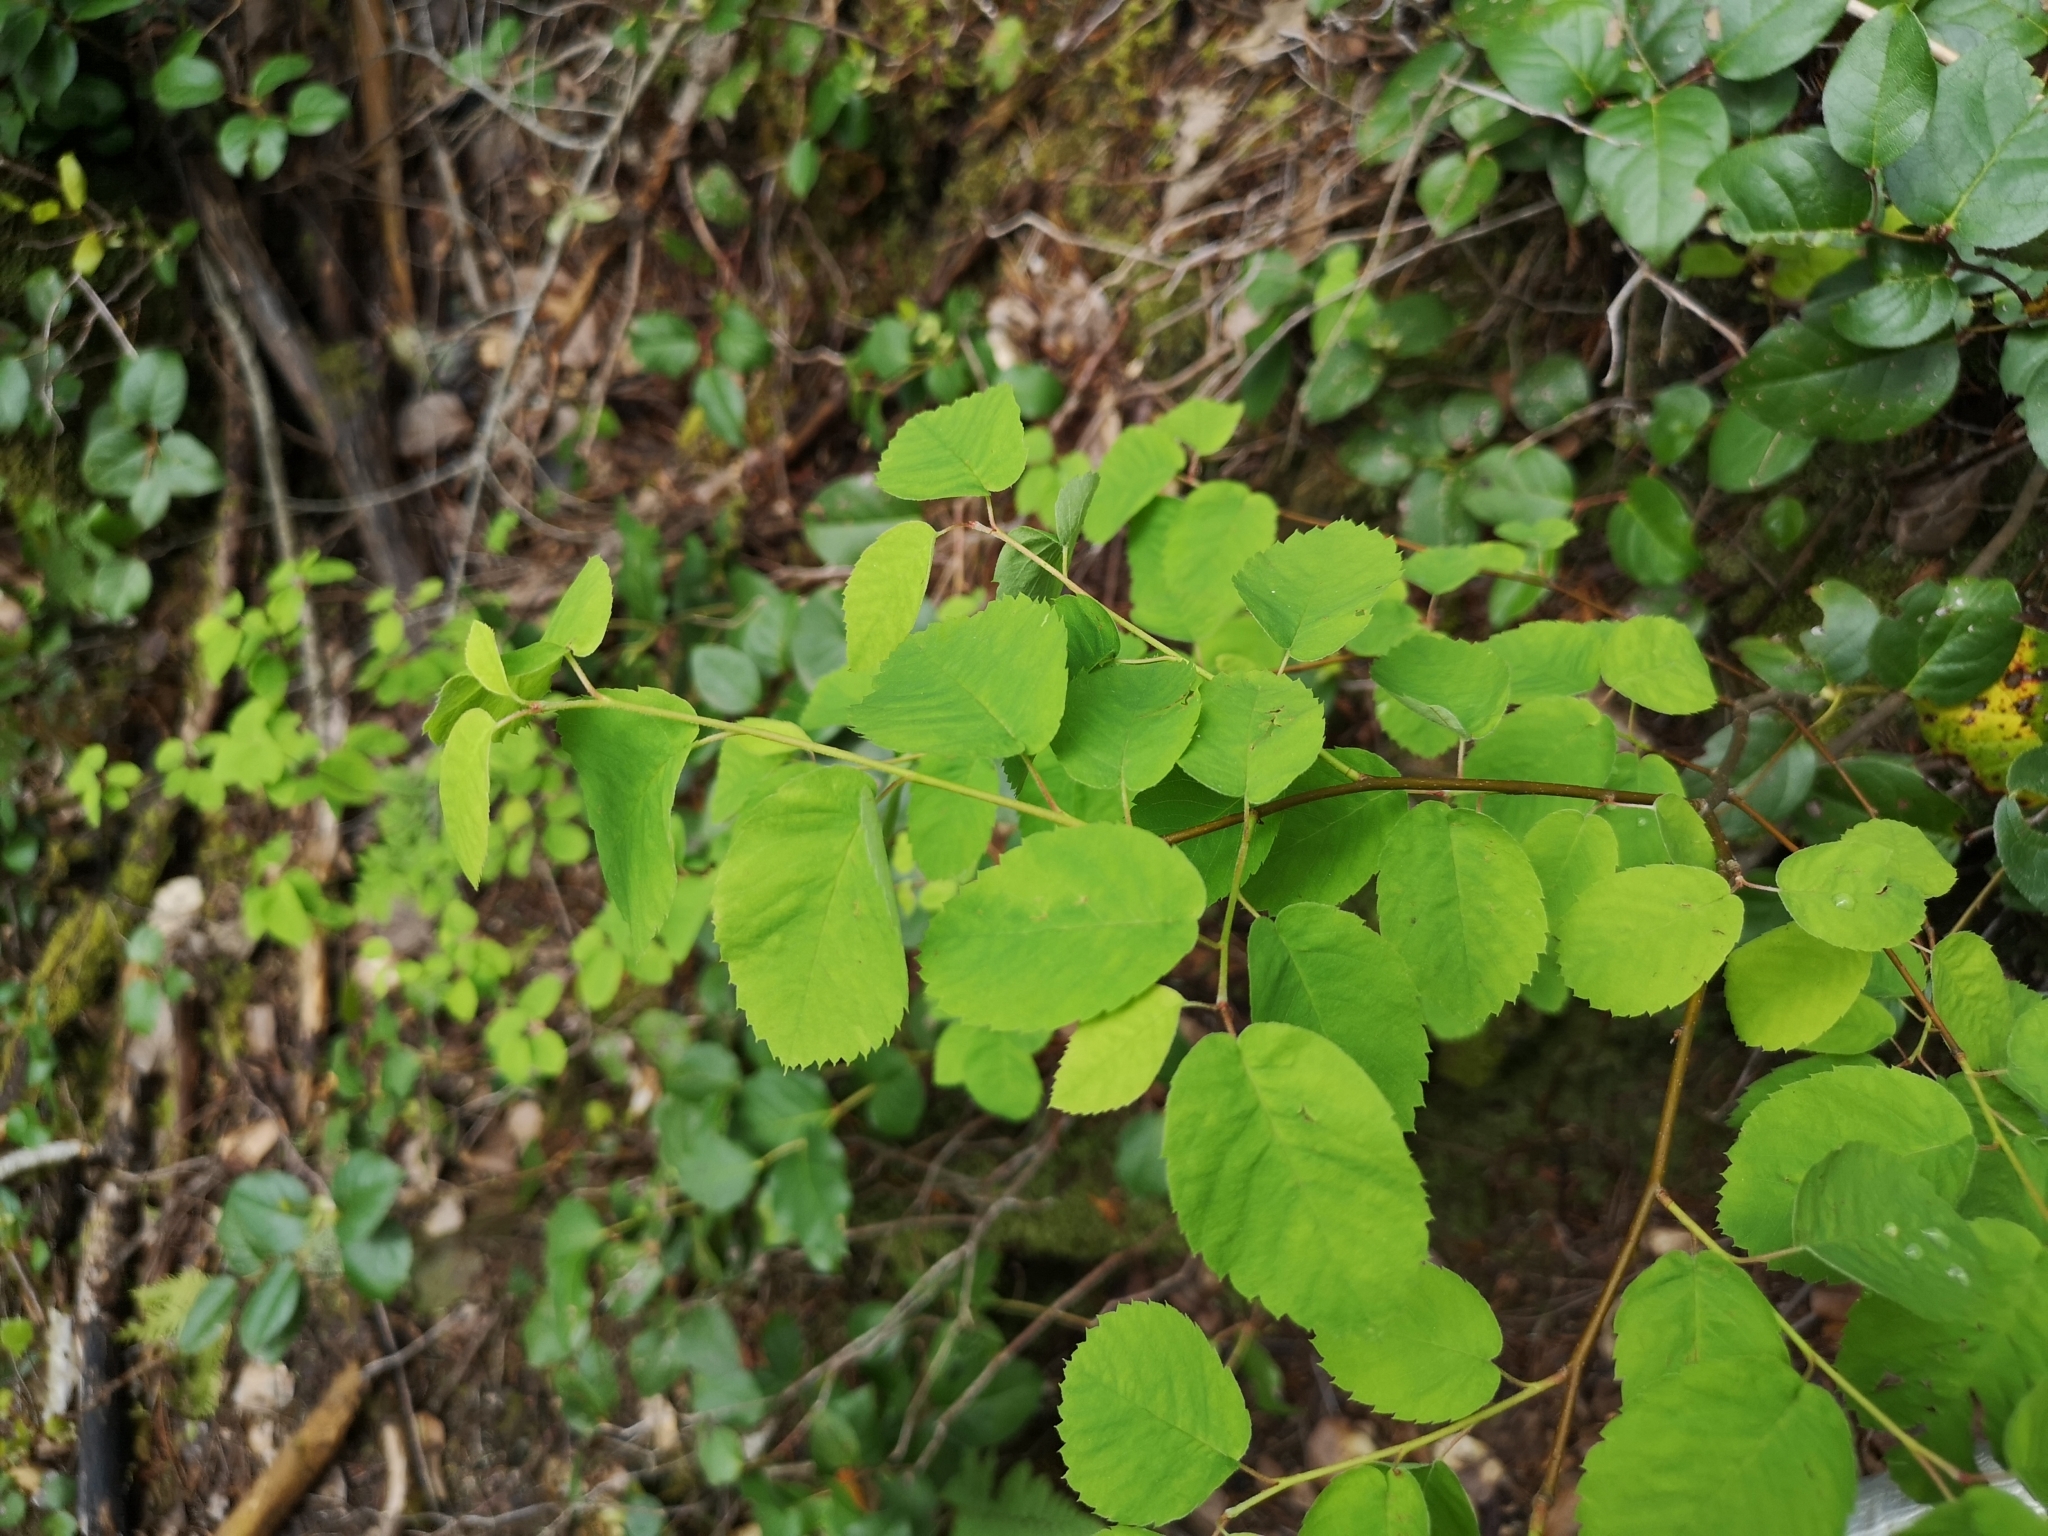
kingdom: Plantae
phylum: Tracheophyta
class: Magnoliopsida
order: Rosales
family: Rosaceae
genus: Amelanchier
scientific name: Amelanchier alnifolia
